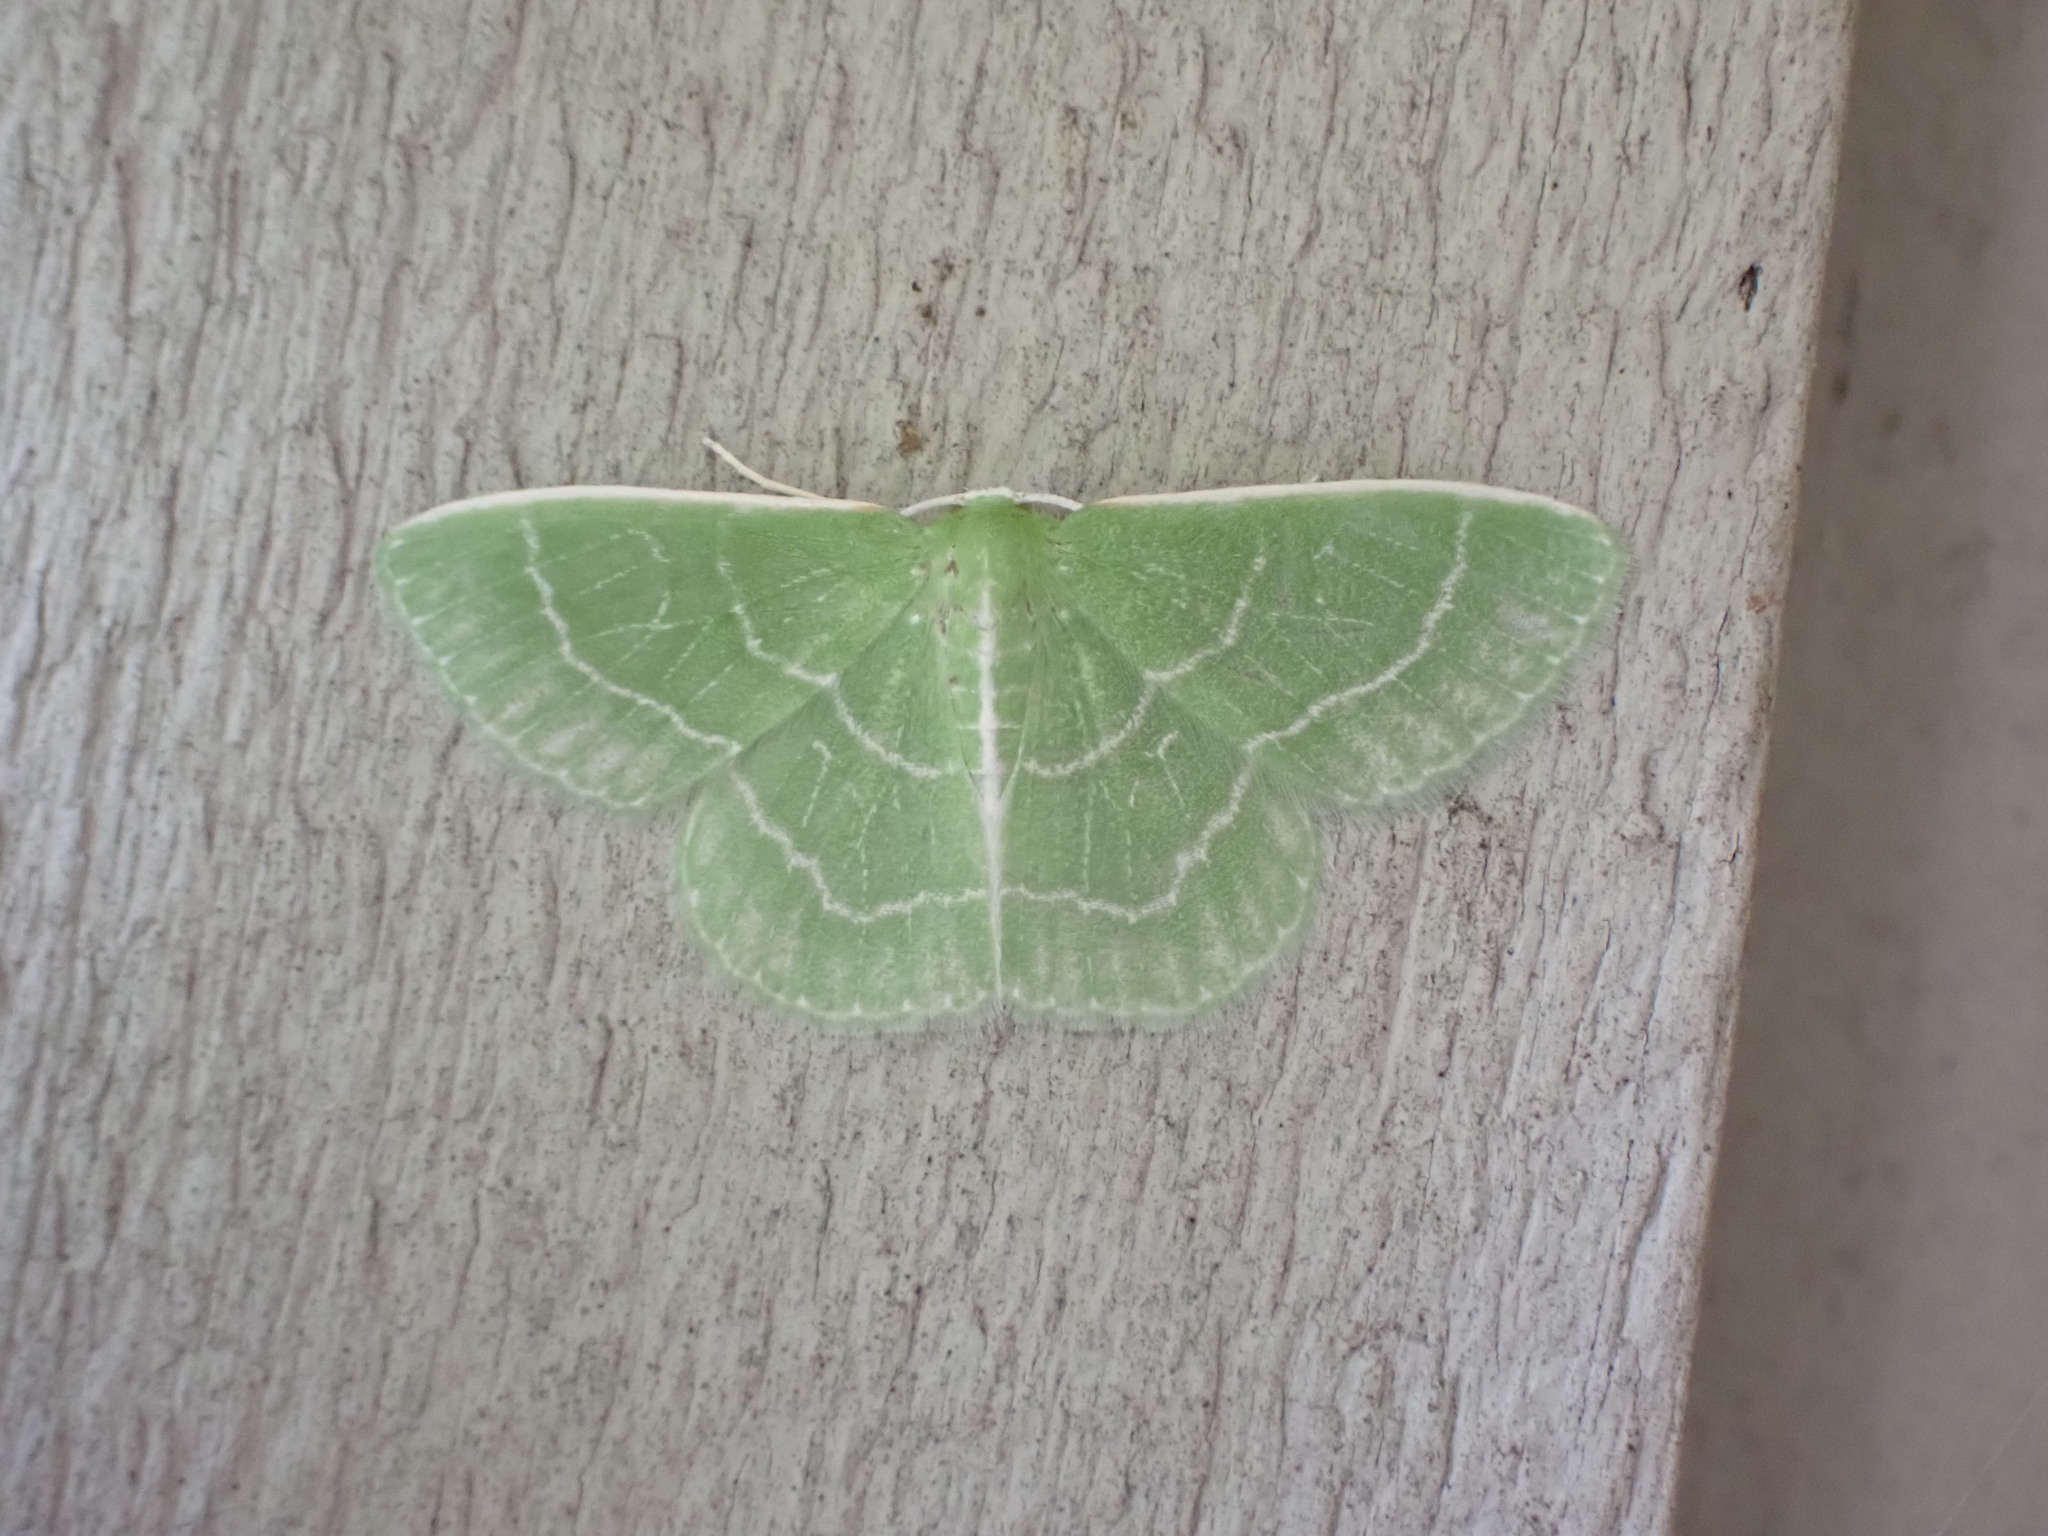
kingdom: Animalia
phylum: Arthropoda
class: Insecta
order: Lepidoptera
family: Geometridae
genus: Synchlora
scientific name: Synchlora aerata
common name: Wavy-lined emerald
